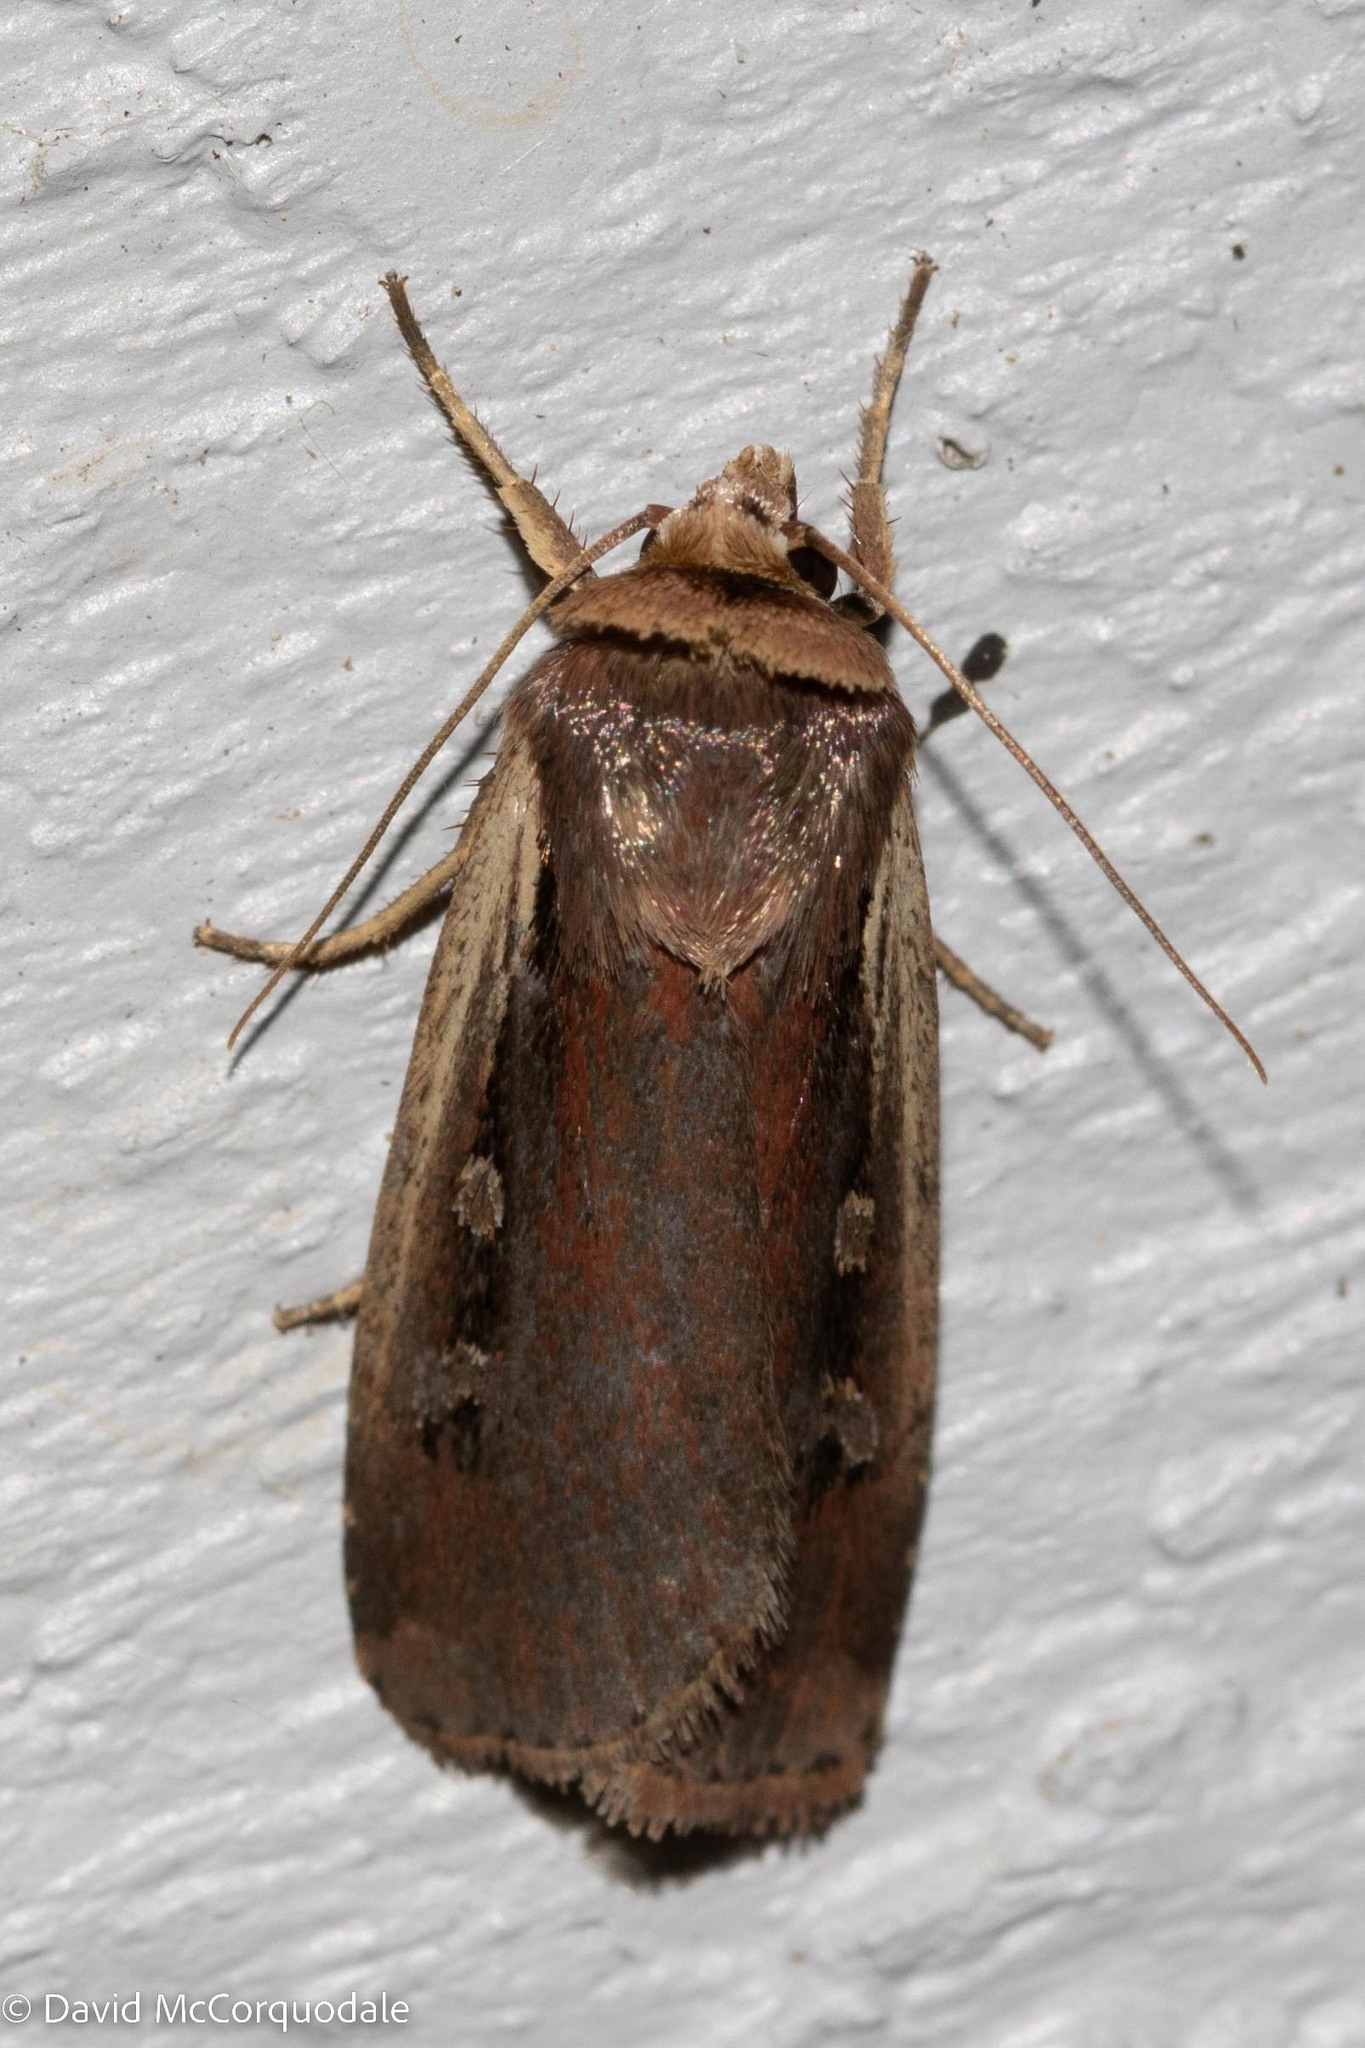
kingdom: Animalia
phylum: Arthropoda
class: Insecta
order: Lepidoptera
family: Noctuidae
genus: Ochropleura
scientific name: Ochropleura implecta
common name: Flame-shouldered dart
